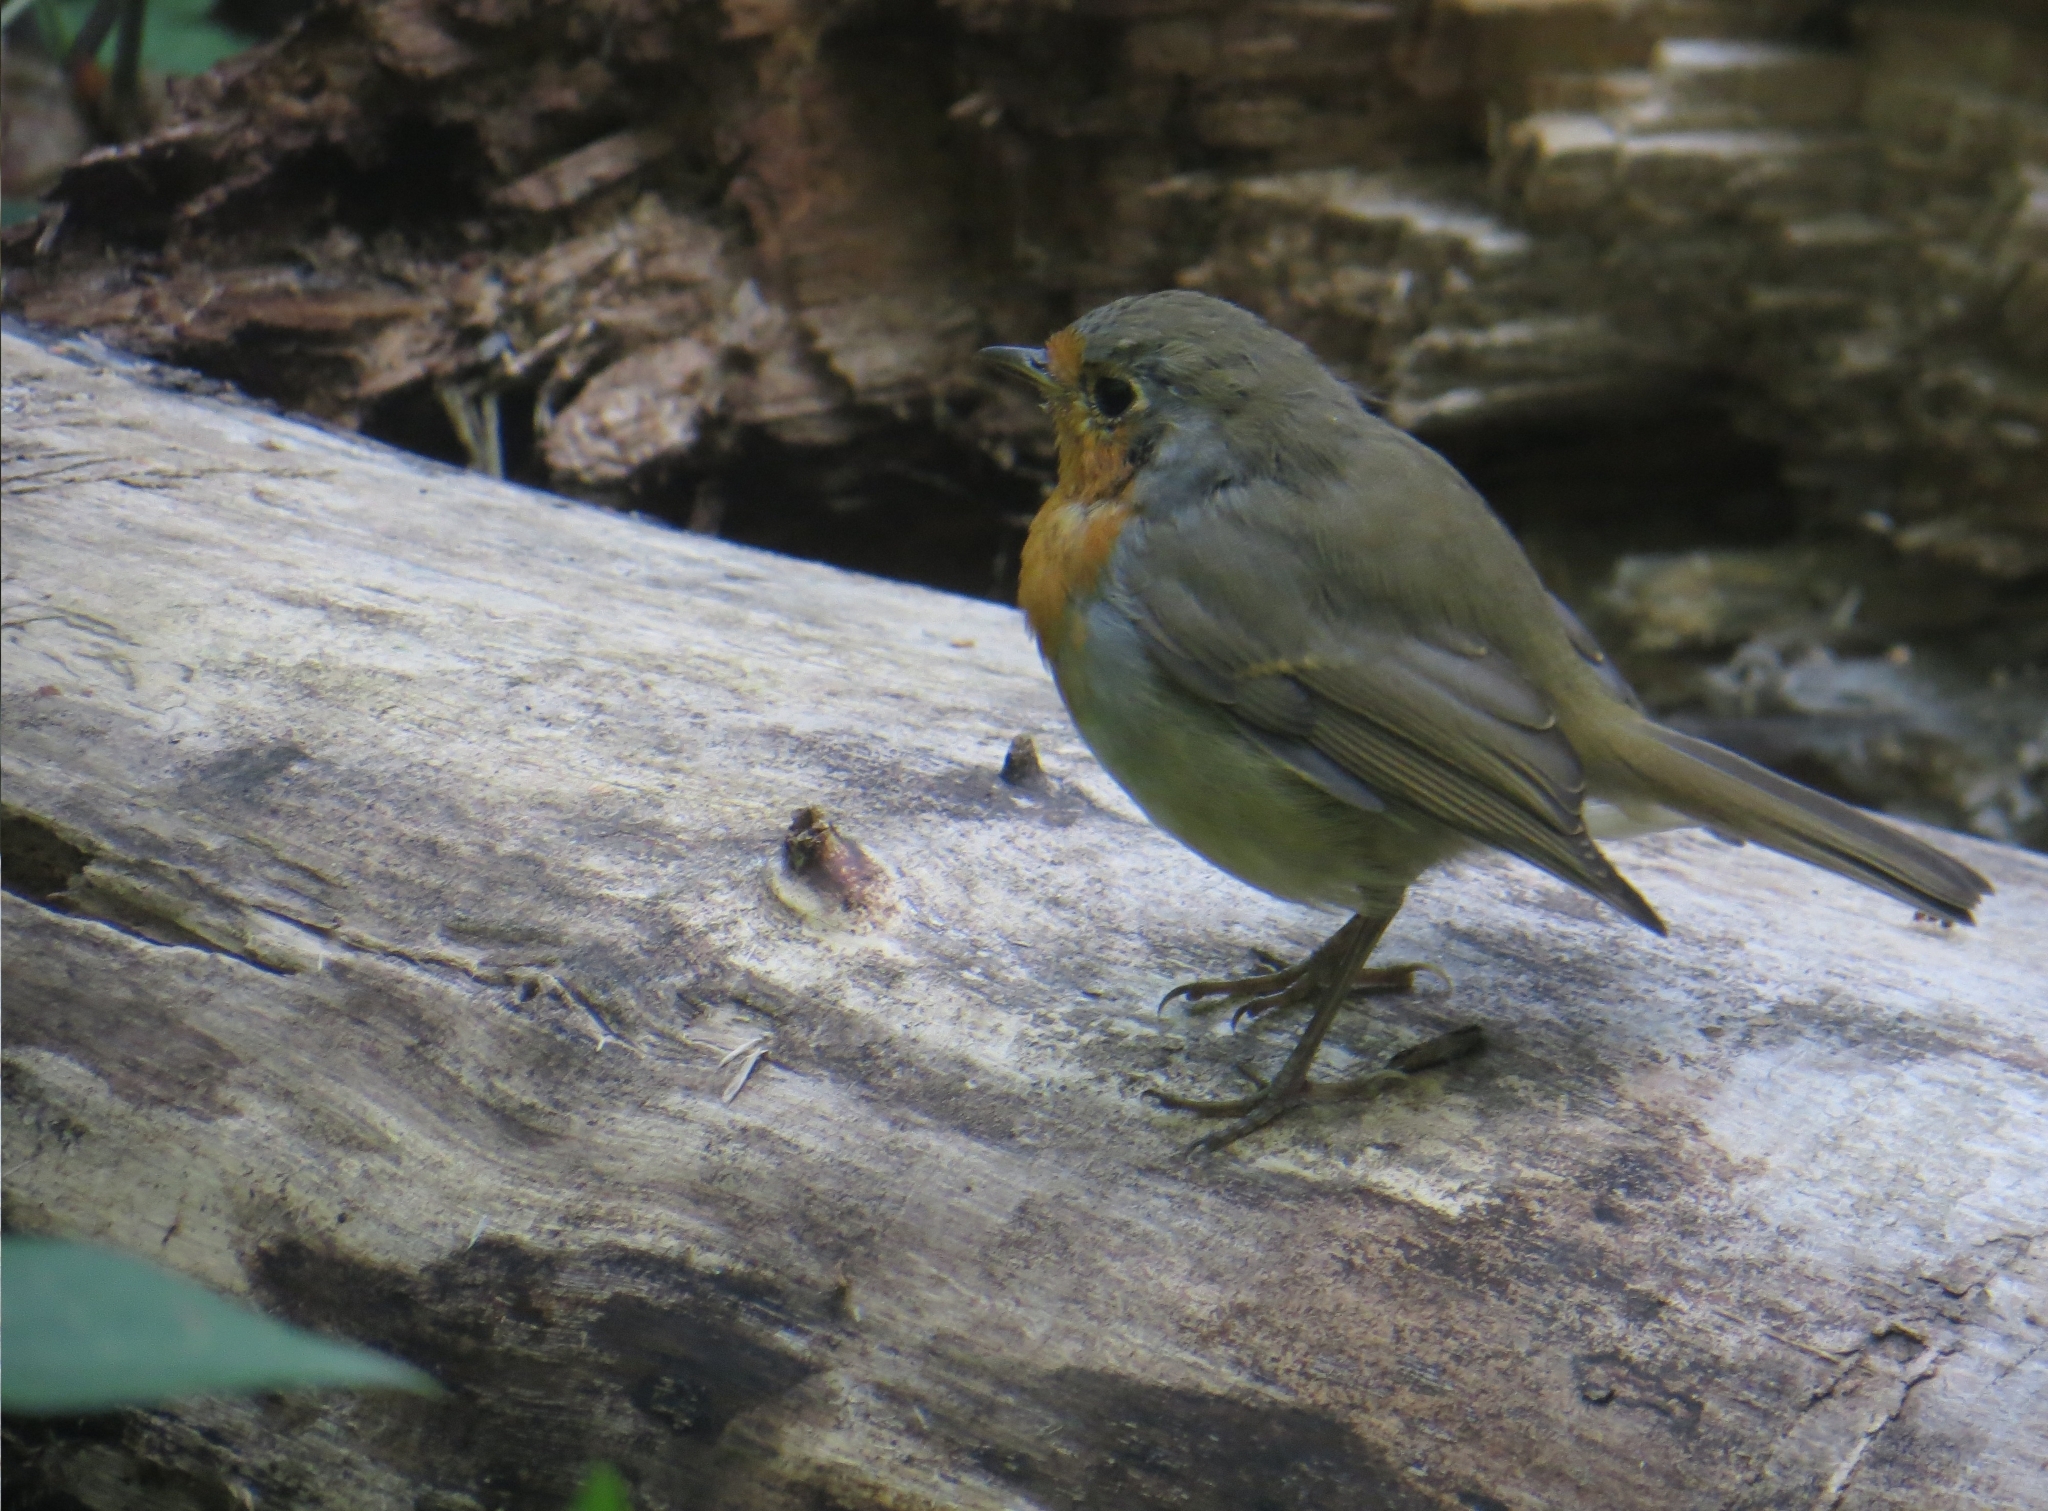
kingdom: Animalia
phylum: Chordata
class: Aves
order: Passeriformes
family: Muscicapidae
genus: Erithacus
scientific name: Erithacus rubecula
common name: European robin
